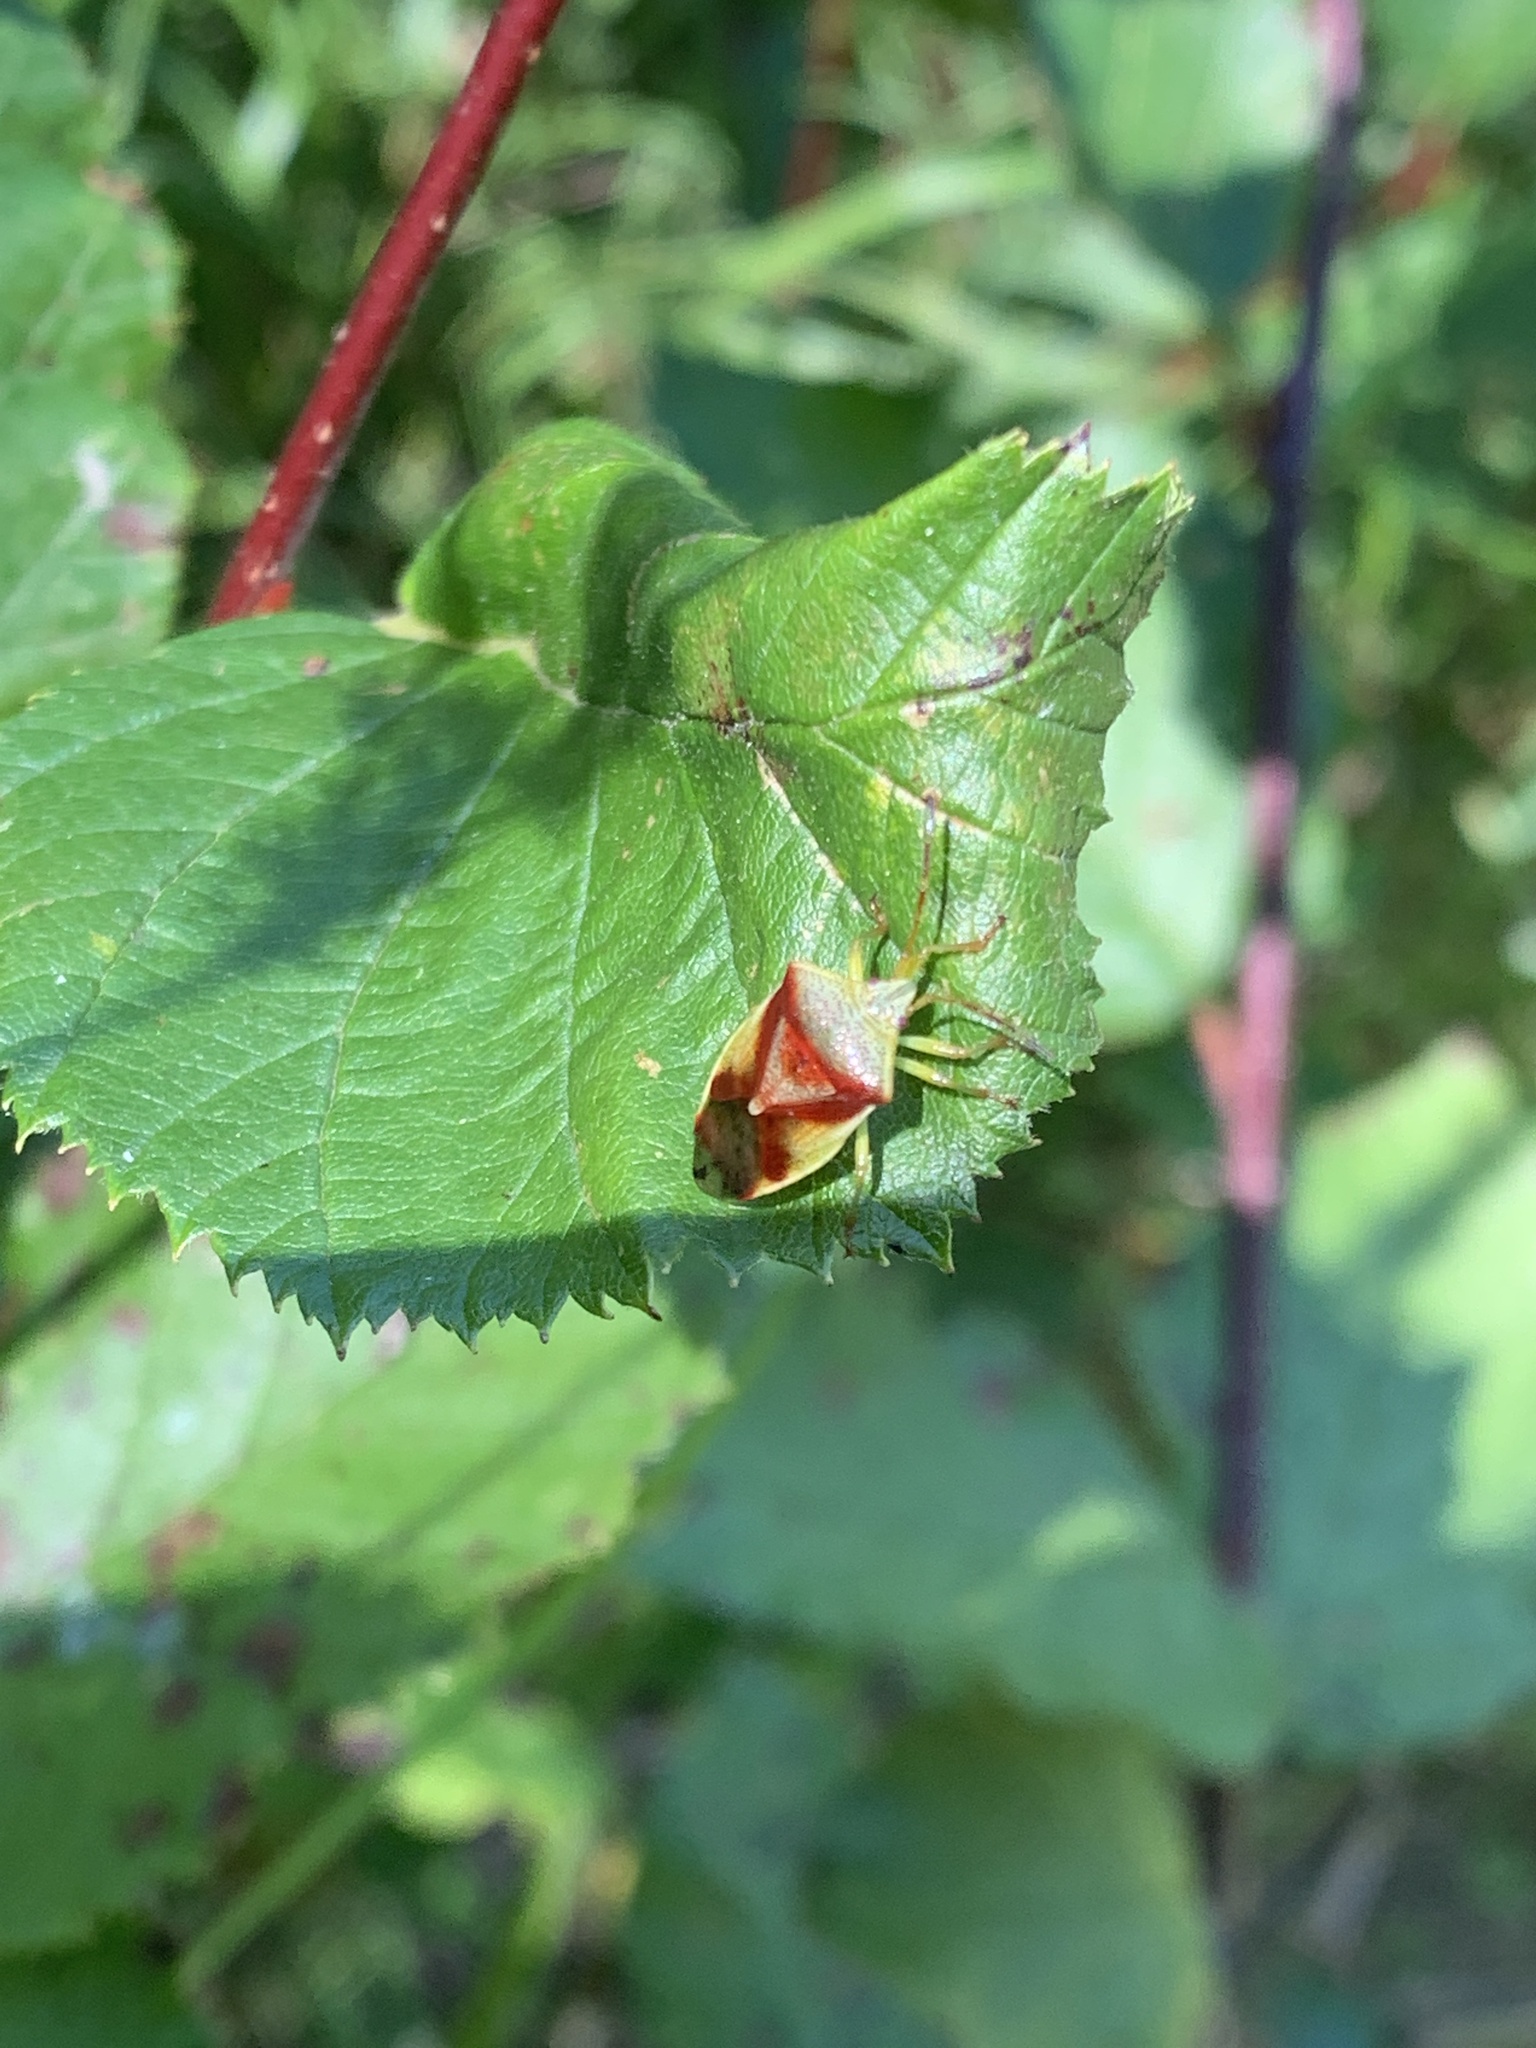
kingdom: Animalia
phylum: Arthropoda
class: Insecta
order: Hemiptera
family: Acanthosomatidae
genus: Elasmostethus
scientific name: Elasmostethus cruciatus
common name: Red-cross shield bug
